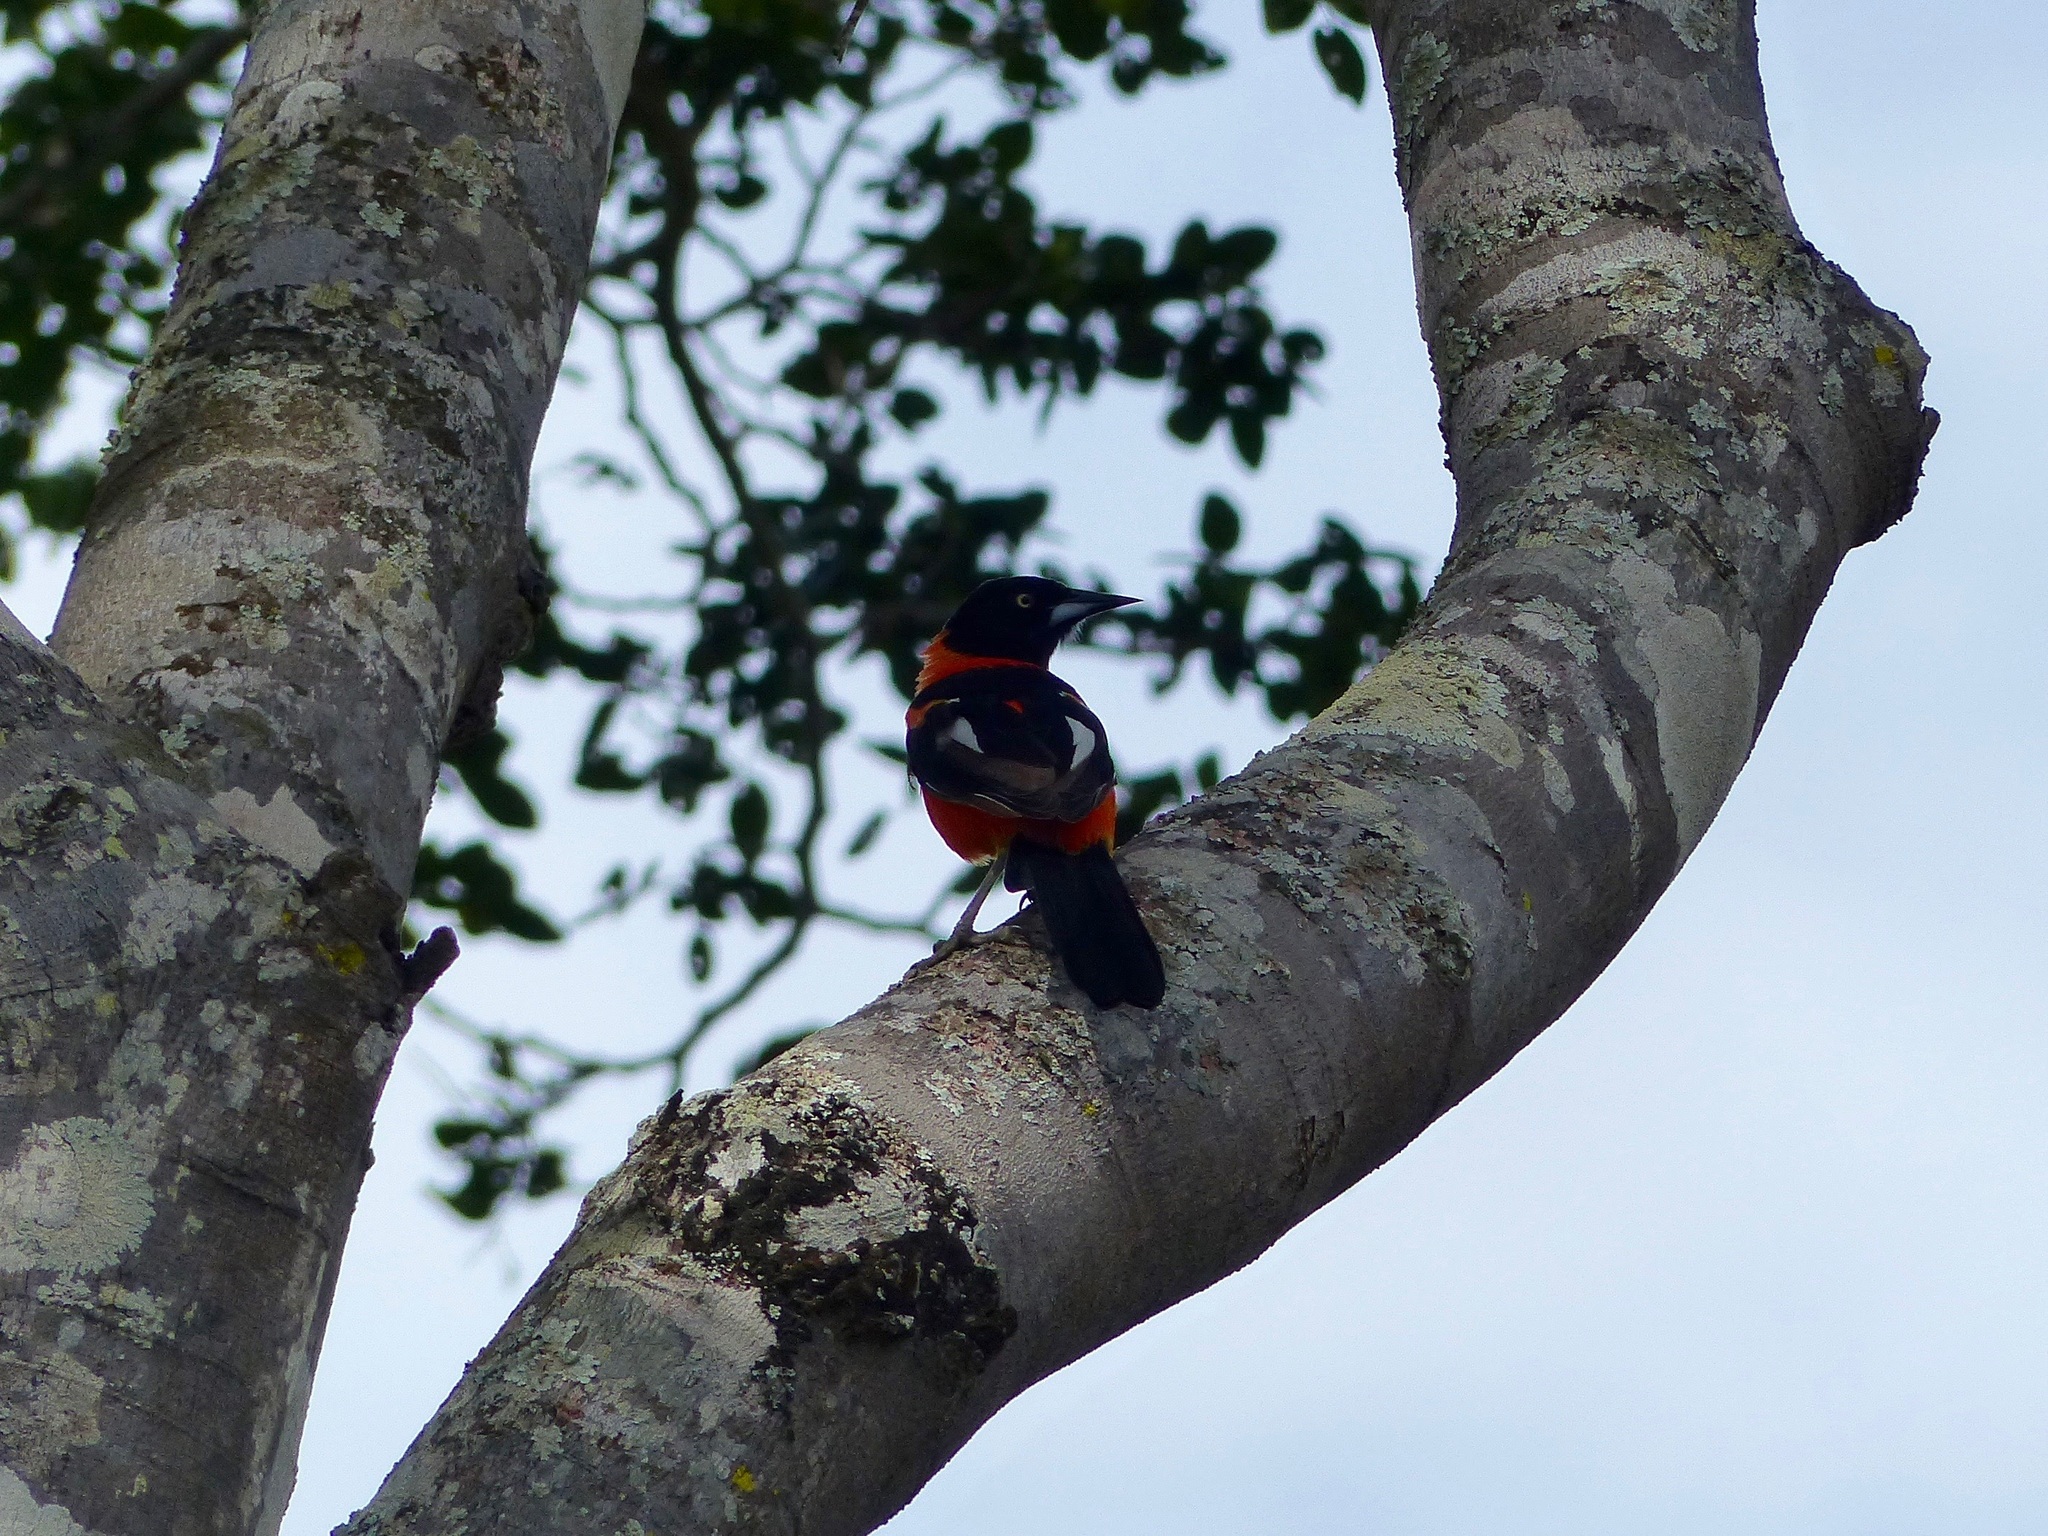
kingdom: Animalia
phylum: Chordata
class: Aves
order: Passeriformes
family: Icteridae
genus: Icterus
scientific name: Icterus icterus
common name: Venezuelan troupial
